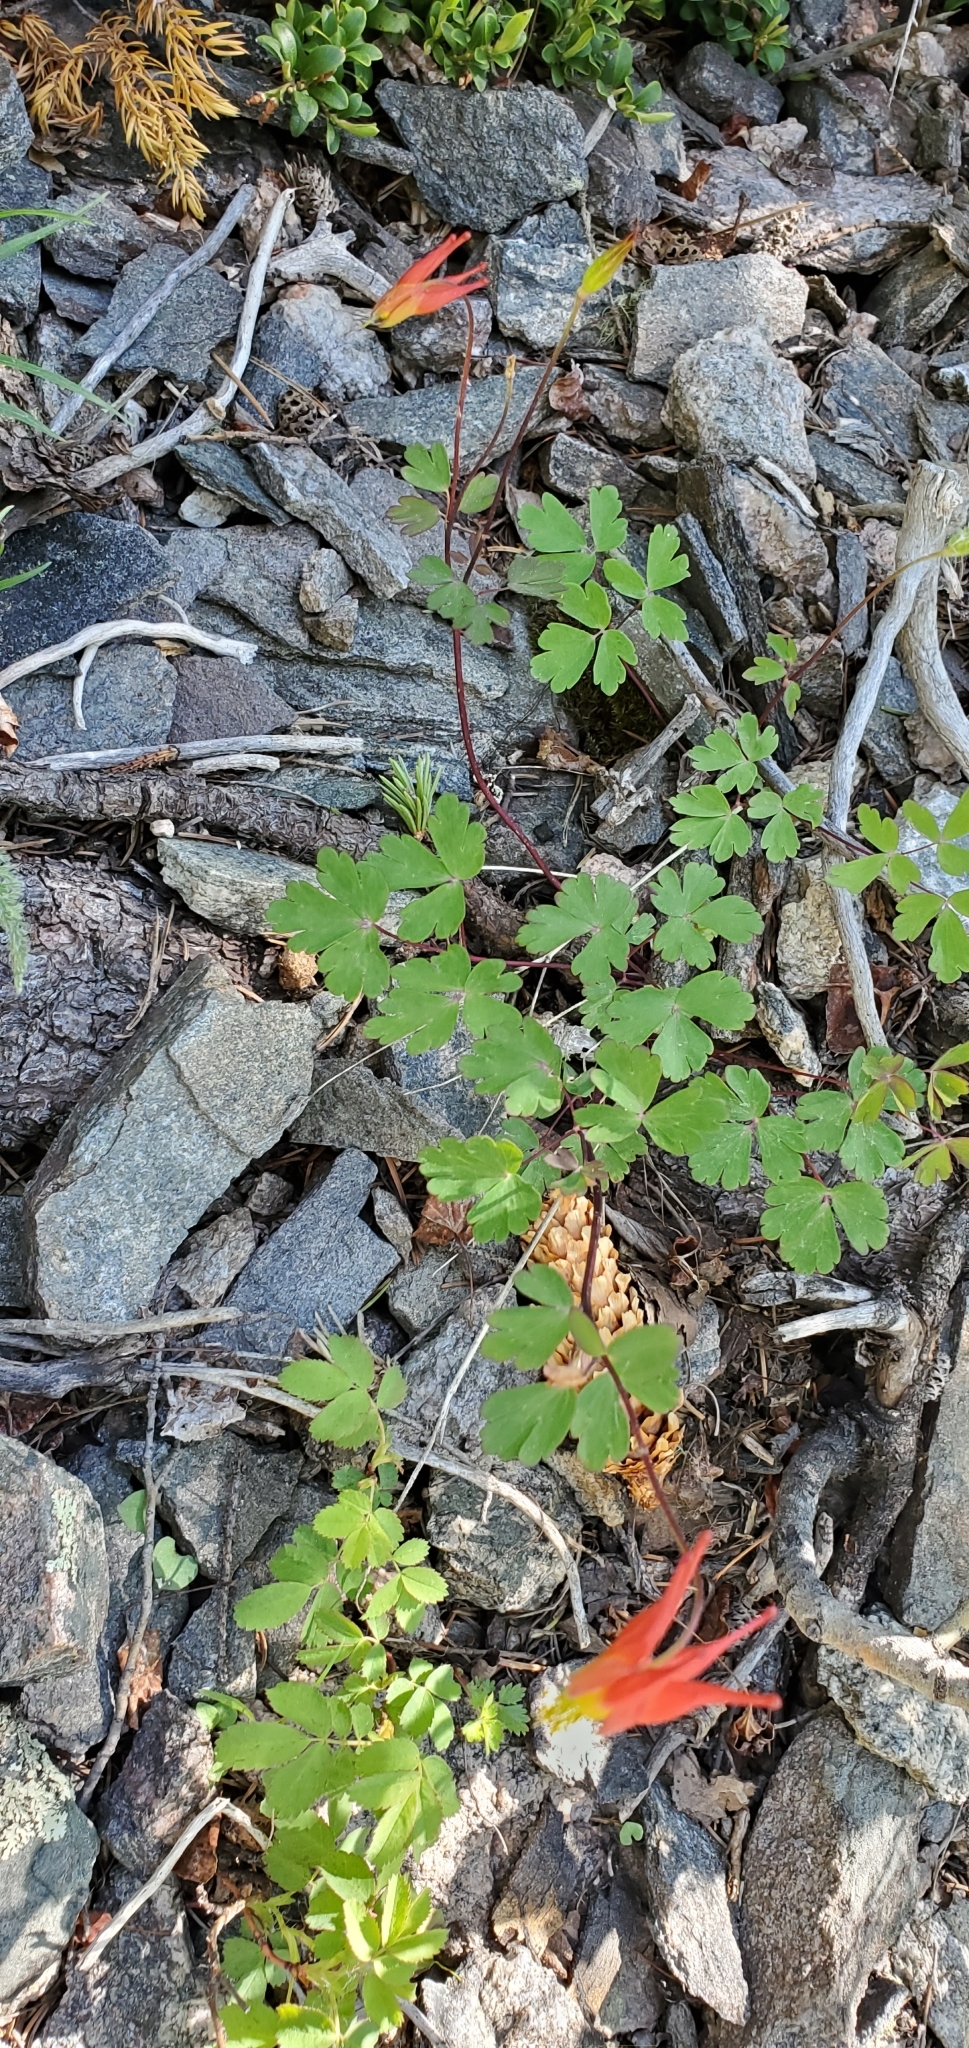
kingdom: Plantae
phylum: Tracheophyta
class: Magnoliopsida
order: Ranunculales
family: Ranunculaceae
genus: Aquilegia
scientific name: Aquilegia elegantula
